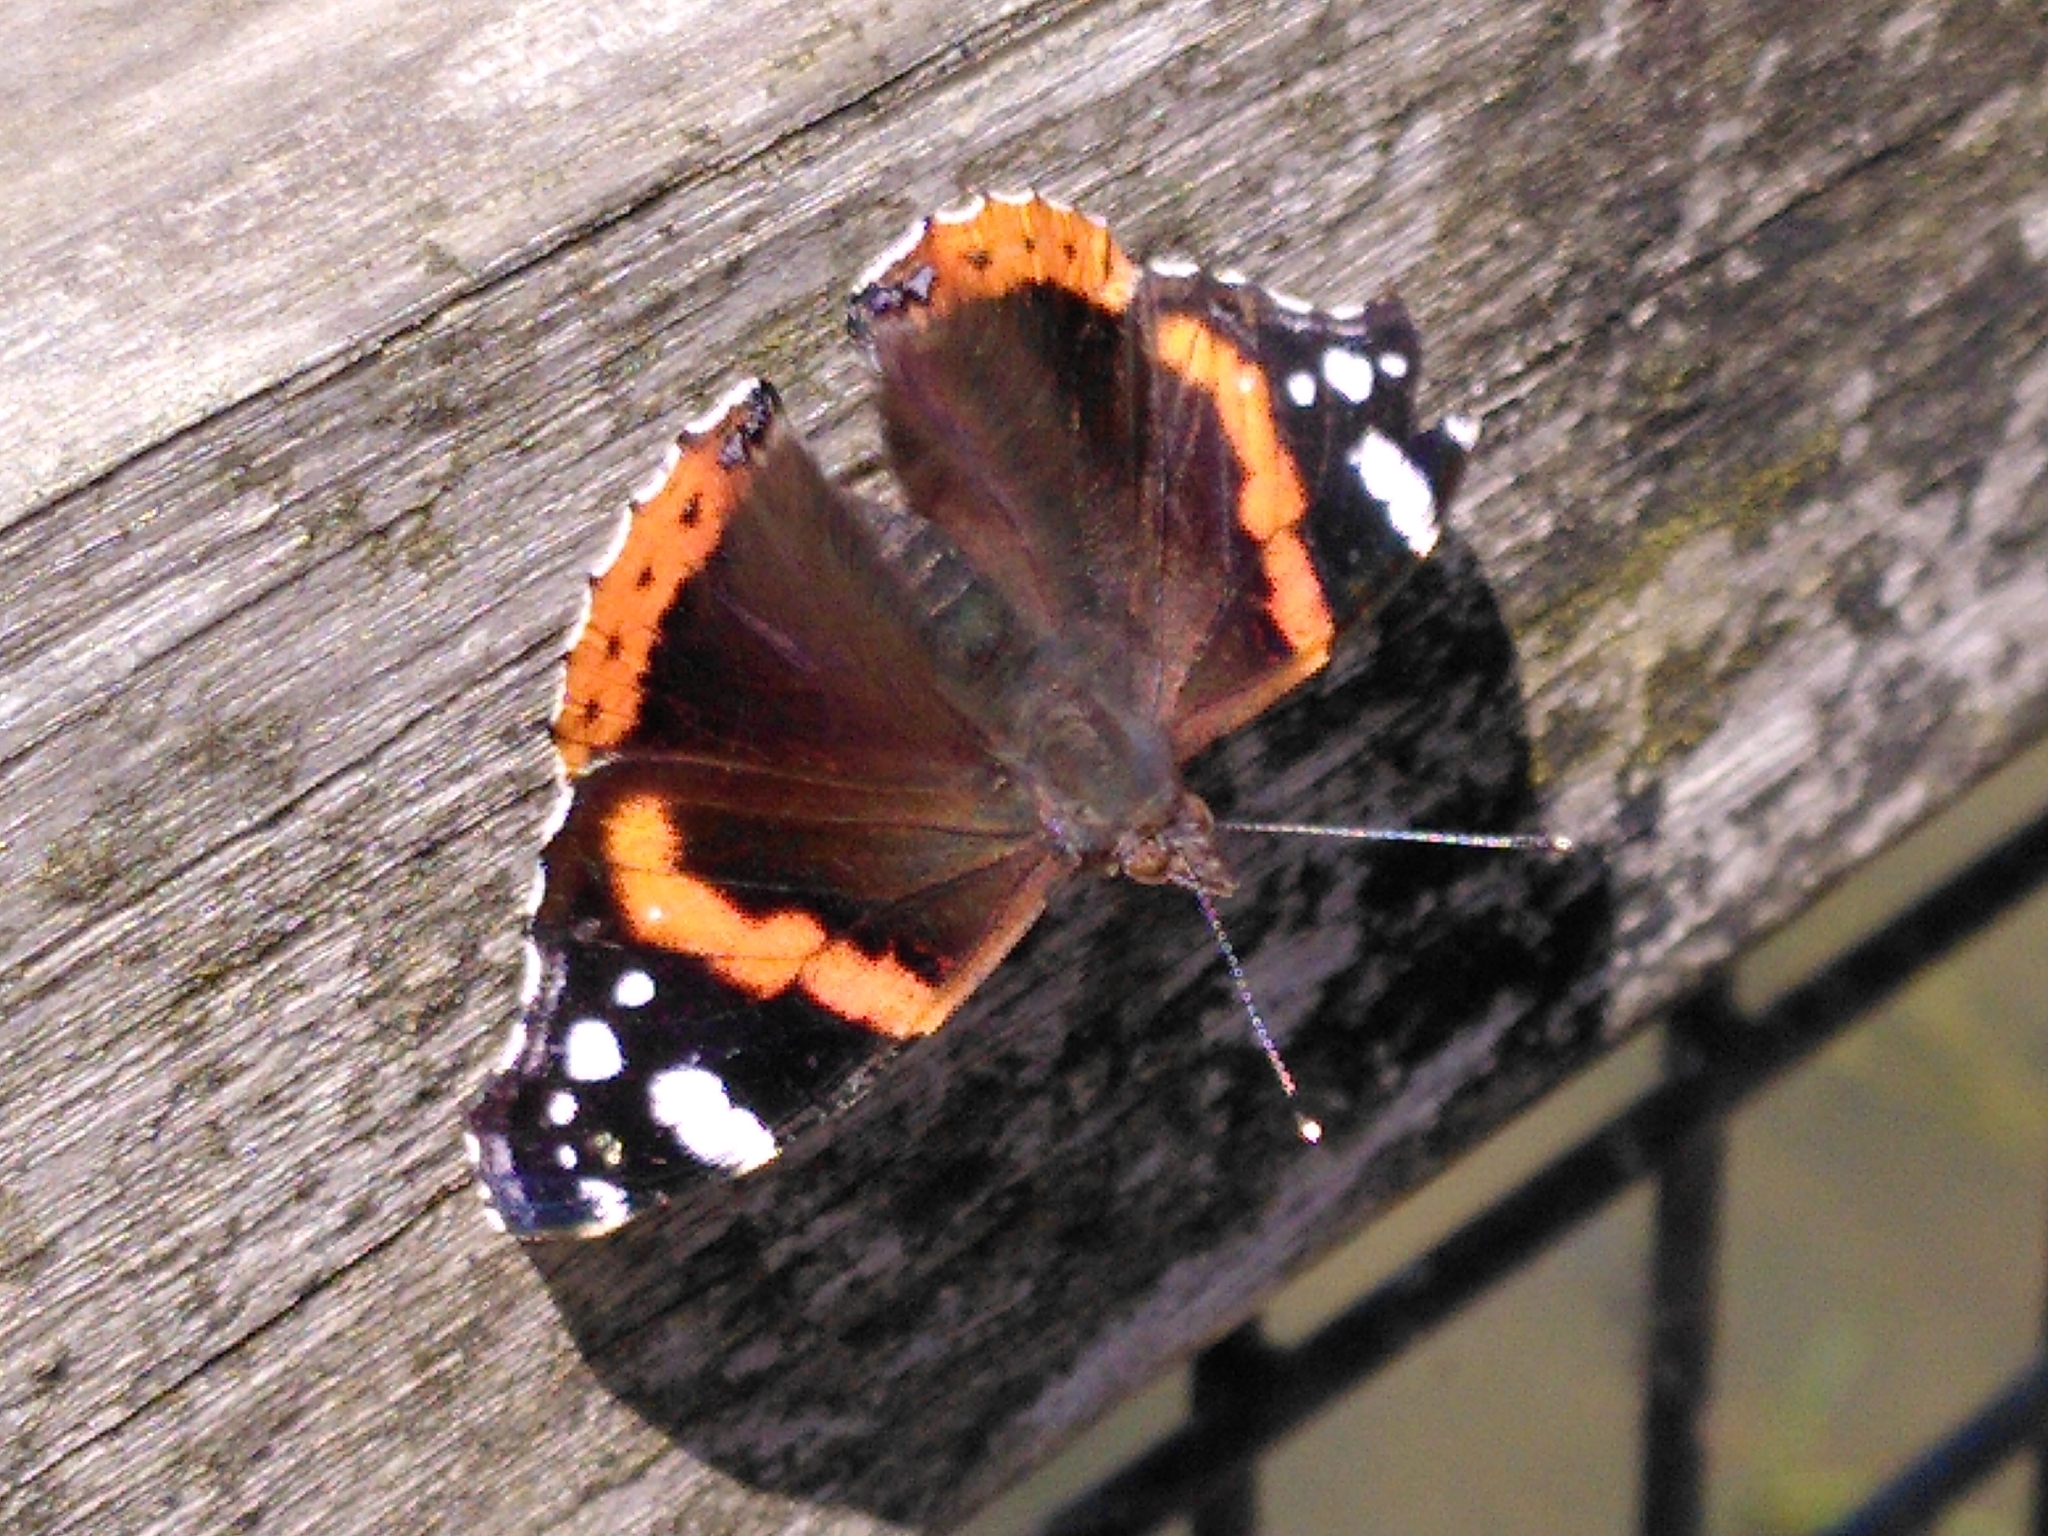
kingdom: Animalia
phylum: Arthropoda
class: Insecta
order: Lepidoptera
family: Nymphalidae
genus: Vanessa
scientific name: Vanessa atalanta
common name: Red admiral
